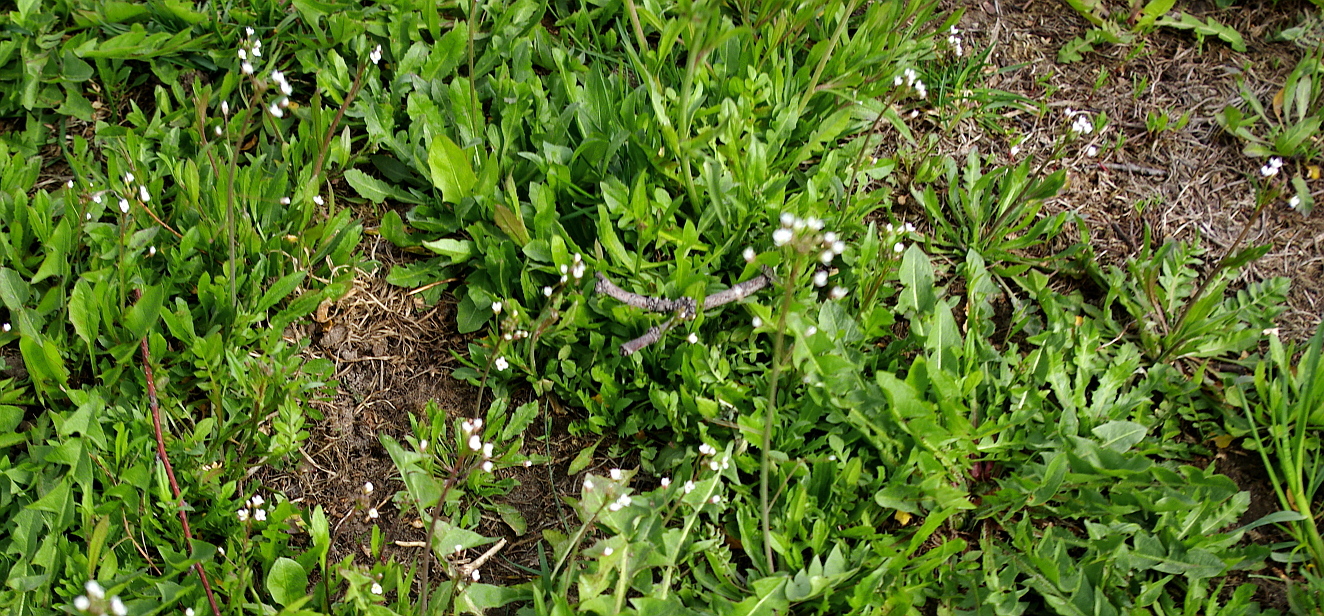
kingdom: Plantae
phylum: Tracheophyta
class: Magnoliopsida
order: Brassicales
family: Brassicaceae
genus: Capsella
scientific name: Capsella bursa-pastoris
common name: Shepherd's purse
